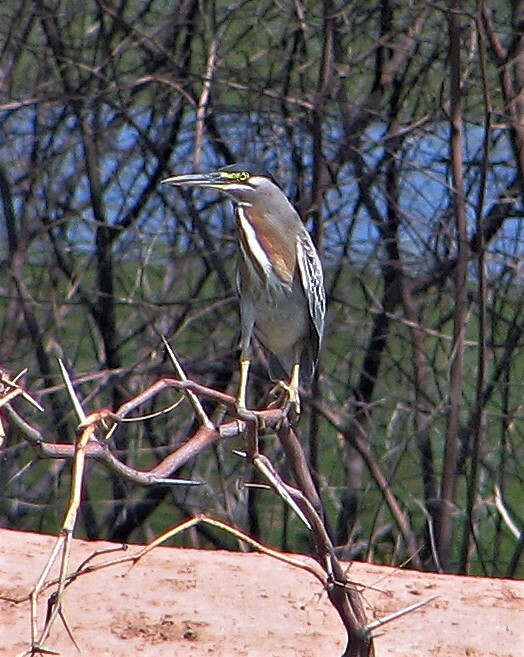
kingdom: Animalia
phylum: Chordata
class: Aves
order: Pelecaniformes
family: Ardeidae
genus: Butorides
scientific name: Butorides striata
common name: Striated heron
